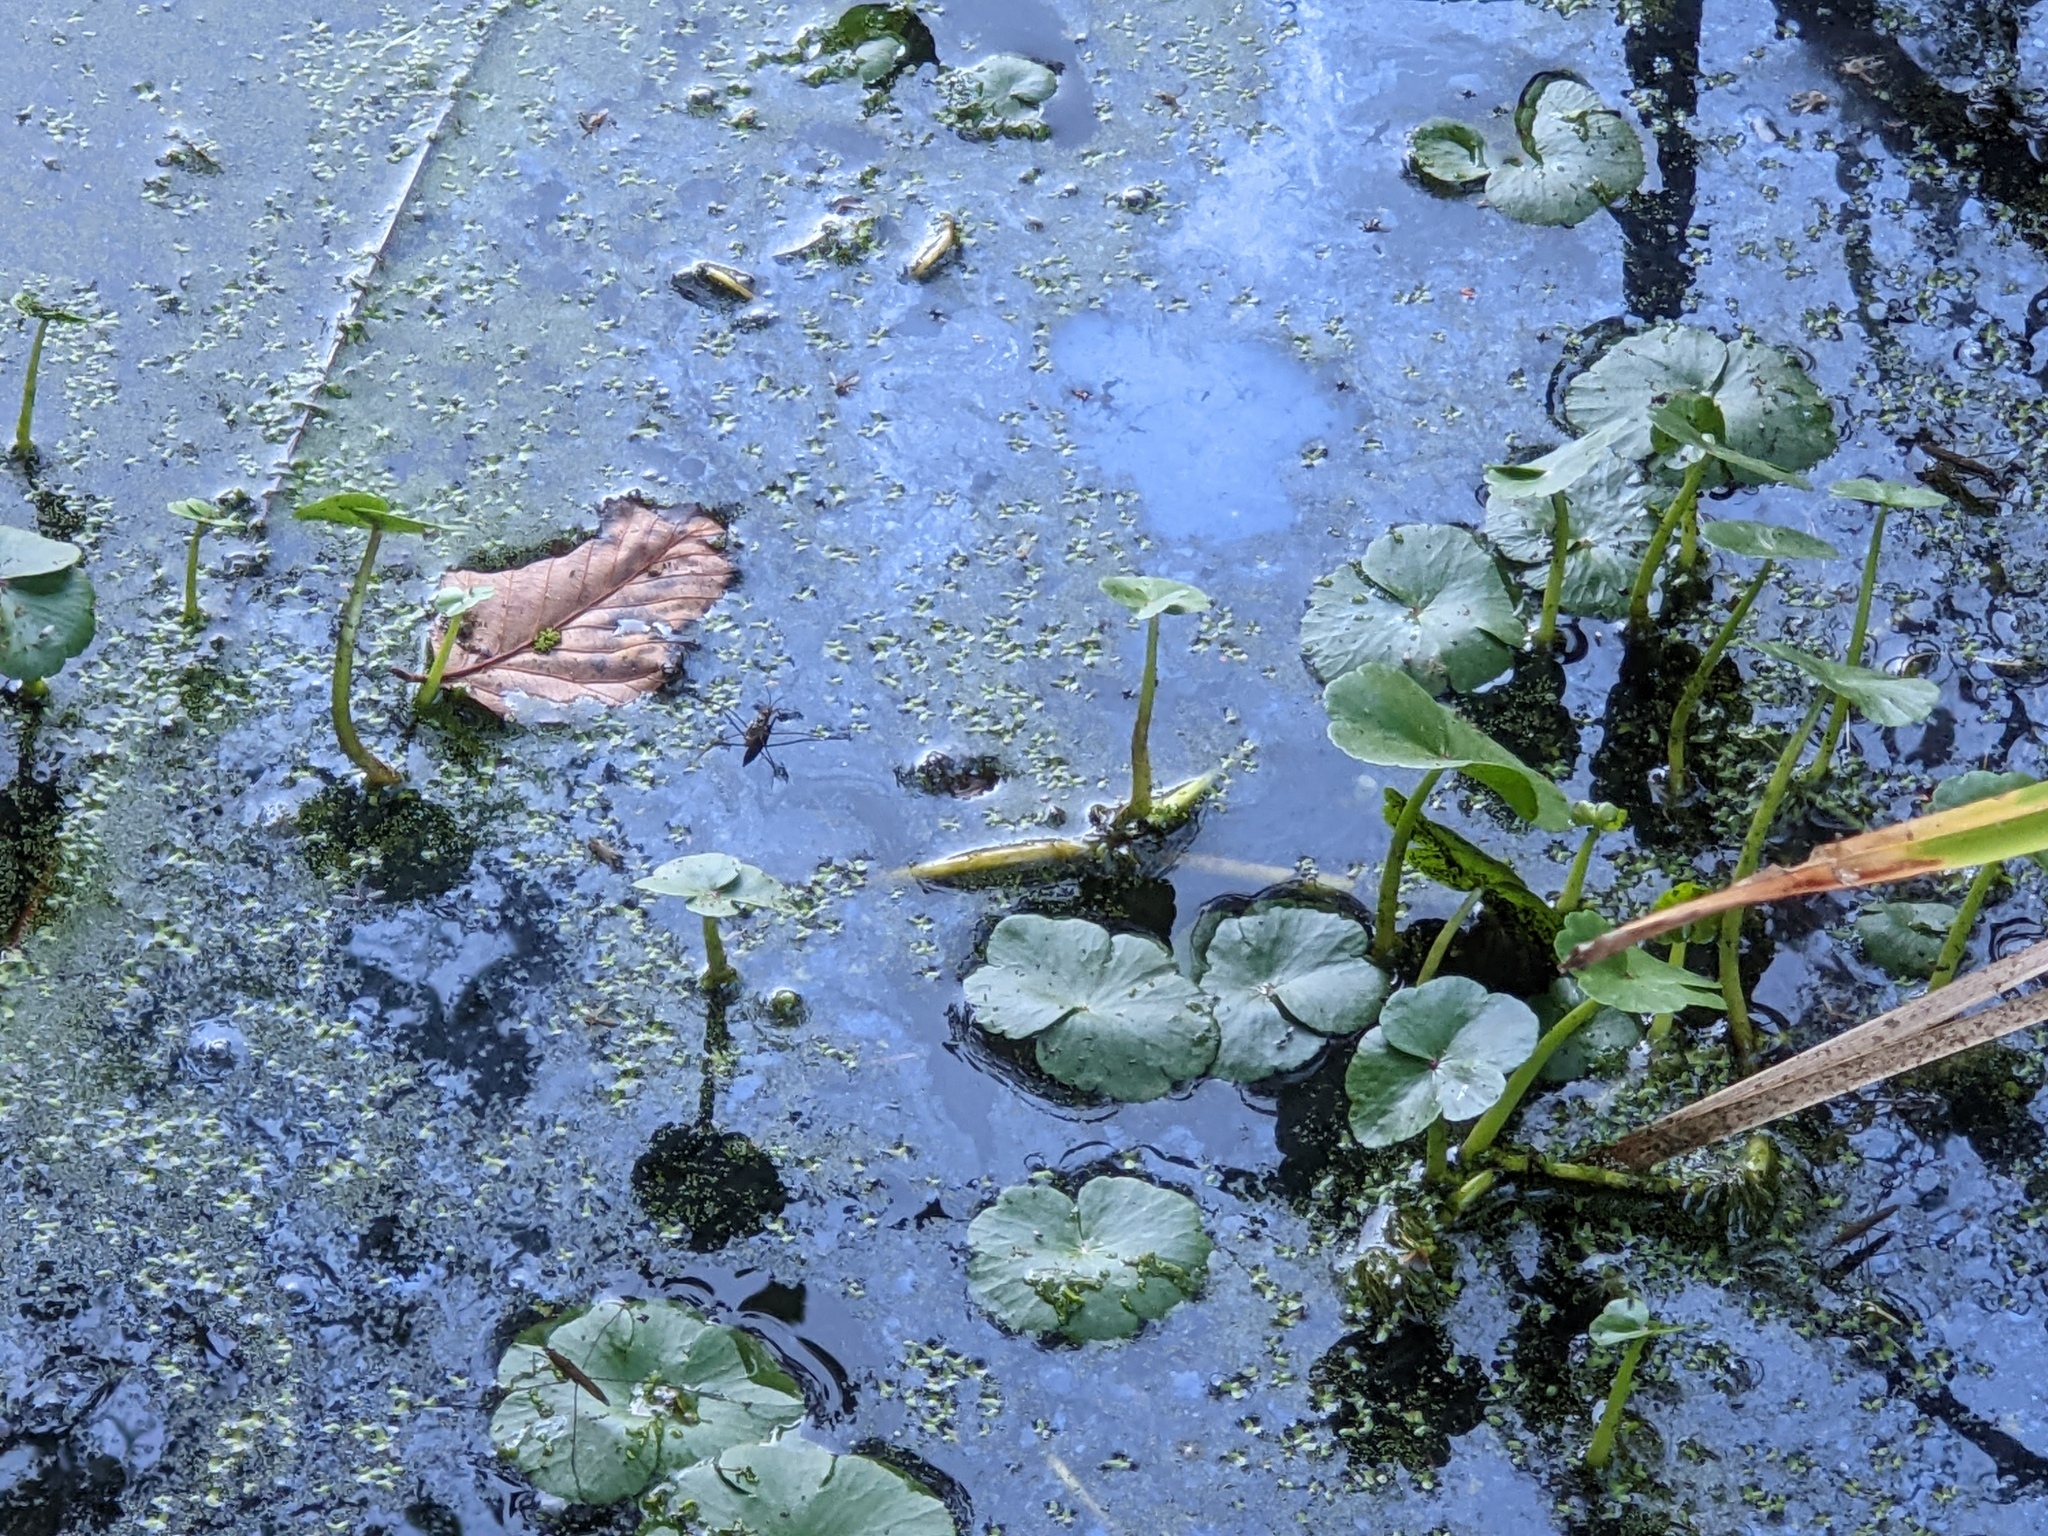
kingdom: Plantae
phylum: Tracheophyta
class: Magnoliopsida
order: Apiales
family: Araliaceae
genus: Hydrocotyle
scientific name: Hydrocotyle ranunculoides
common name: Floating pennywort
